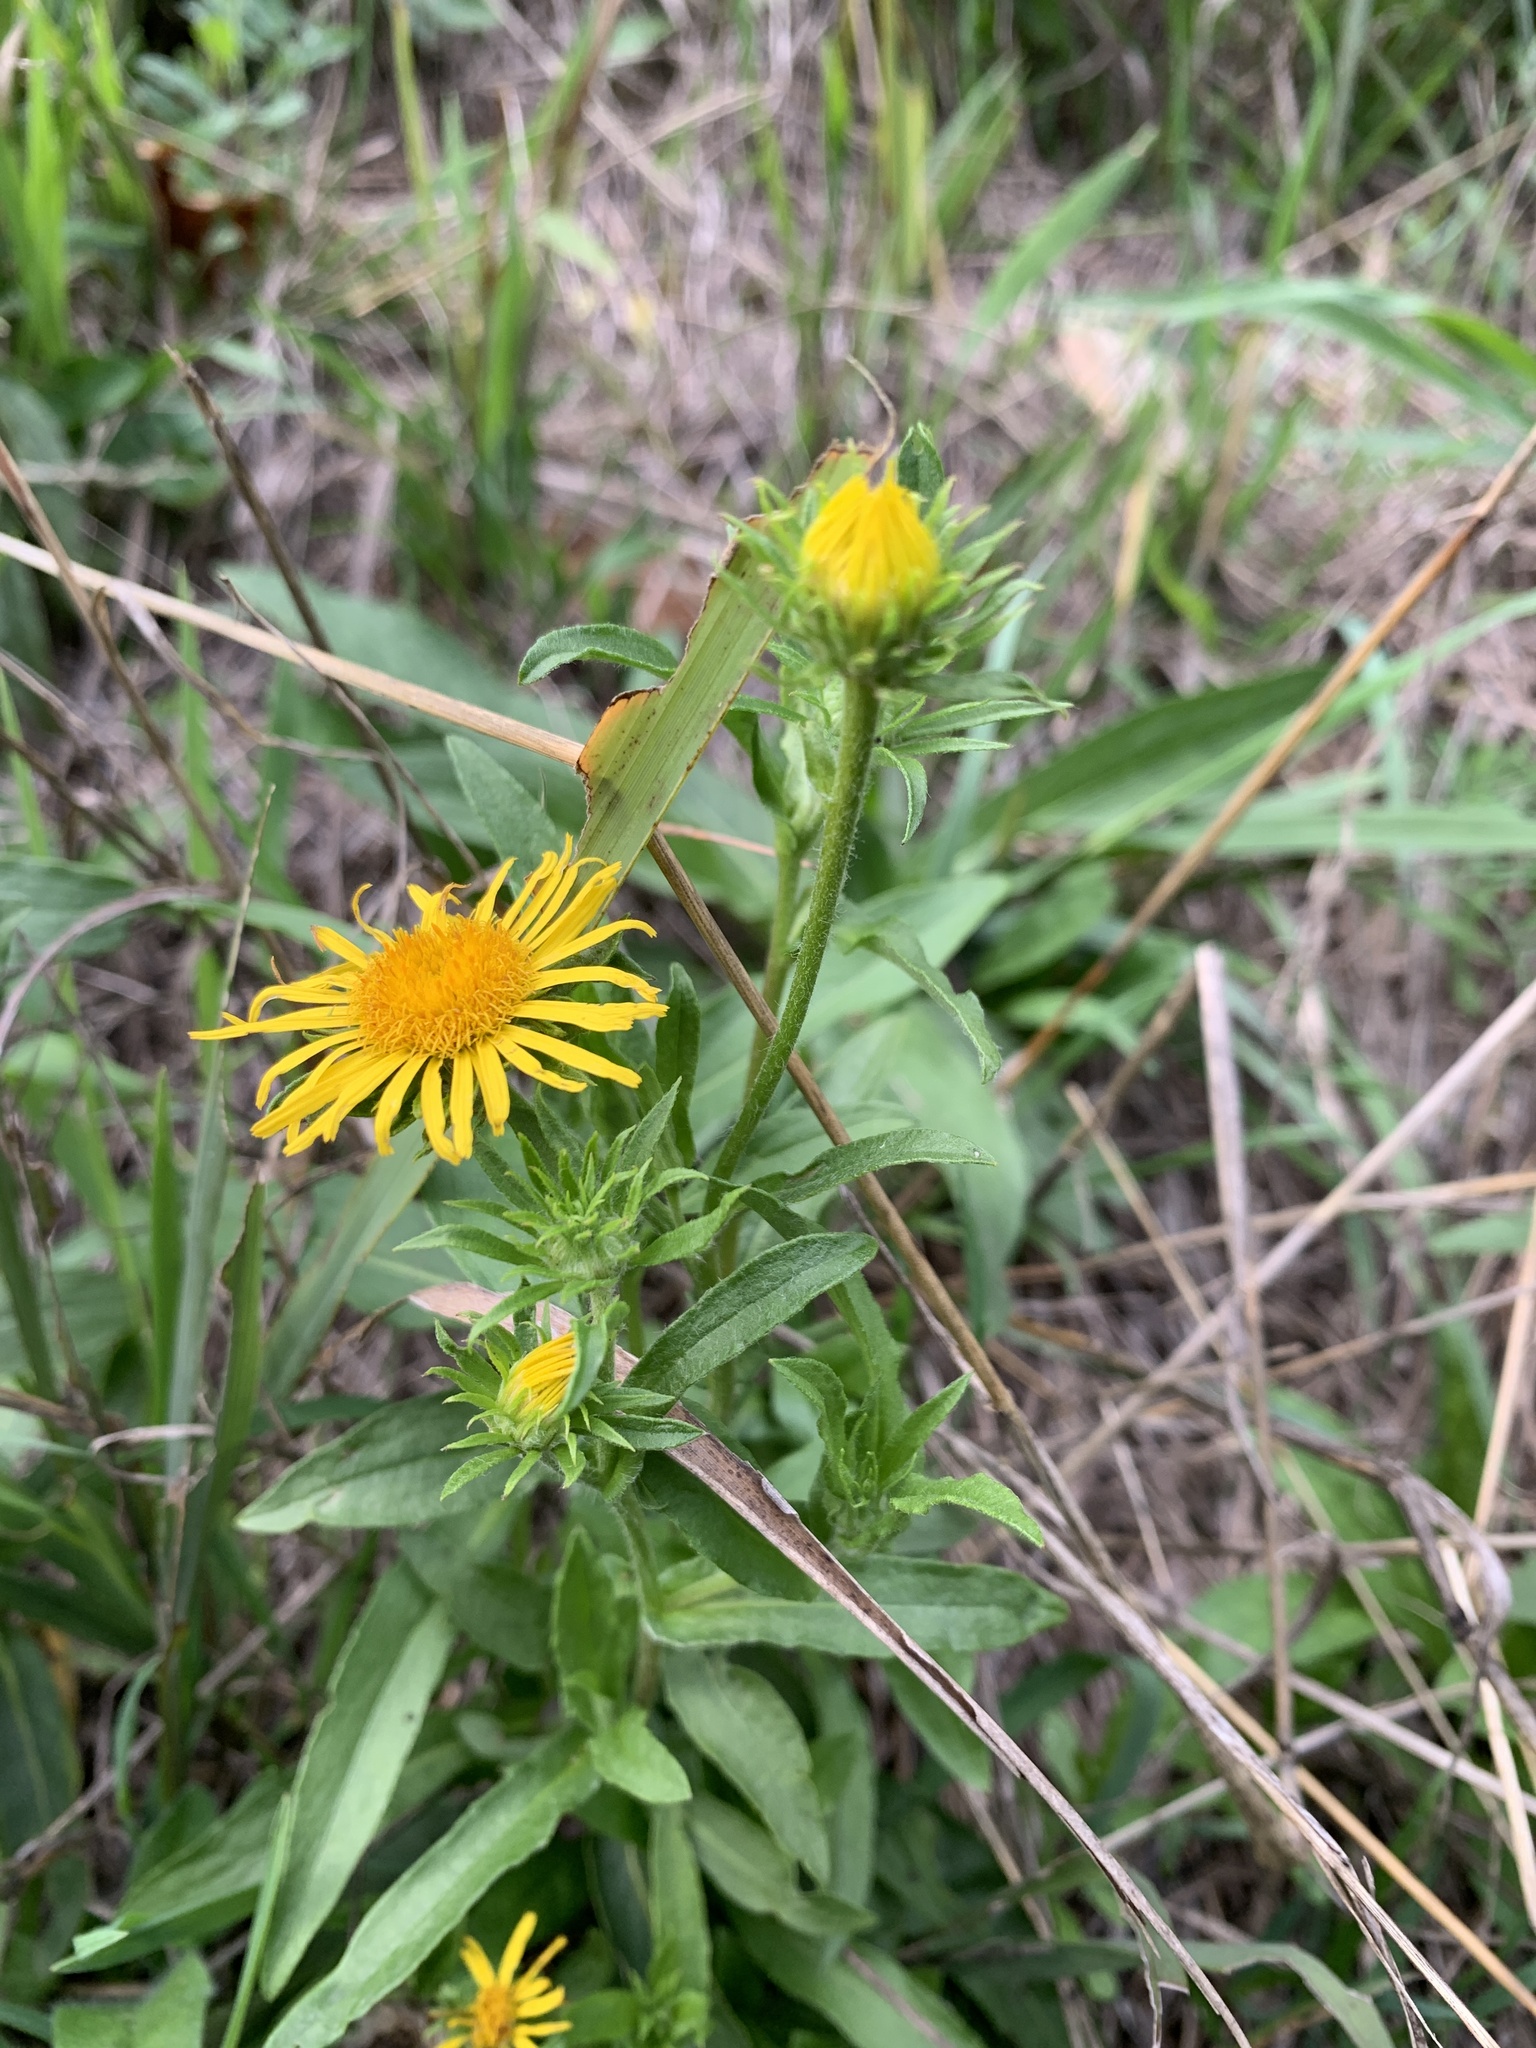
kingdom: Plantae
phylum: Tracheophyta
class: Magnoliopsida
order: Asterales
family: Asteraceae
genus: Pentanema
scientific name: Pentanema britannicum
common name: British elecampane
